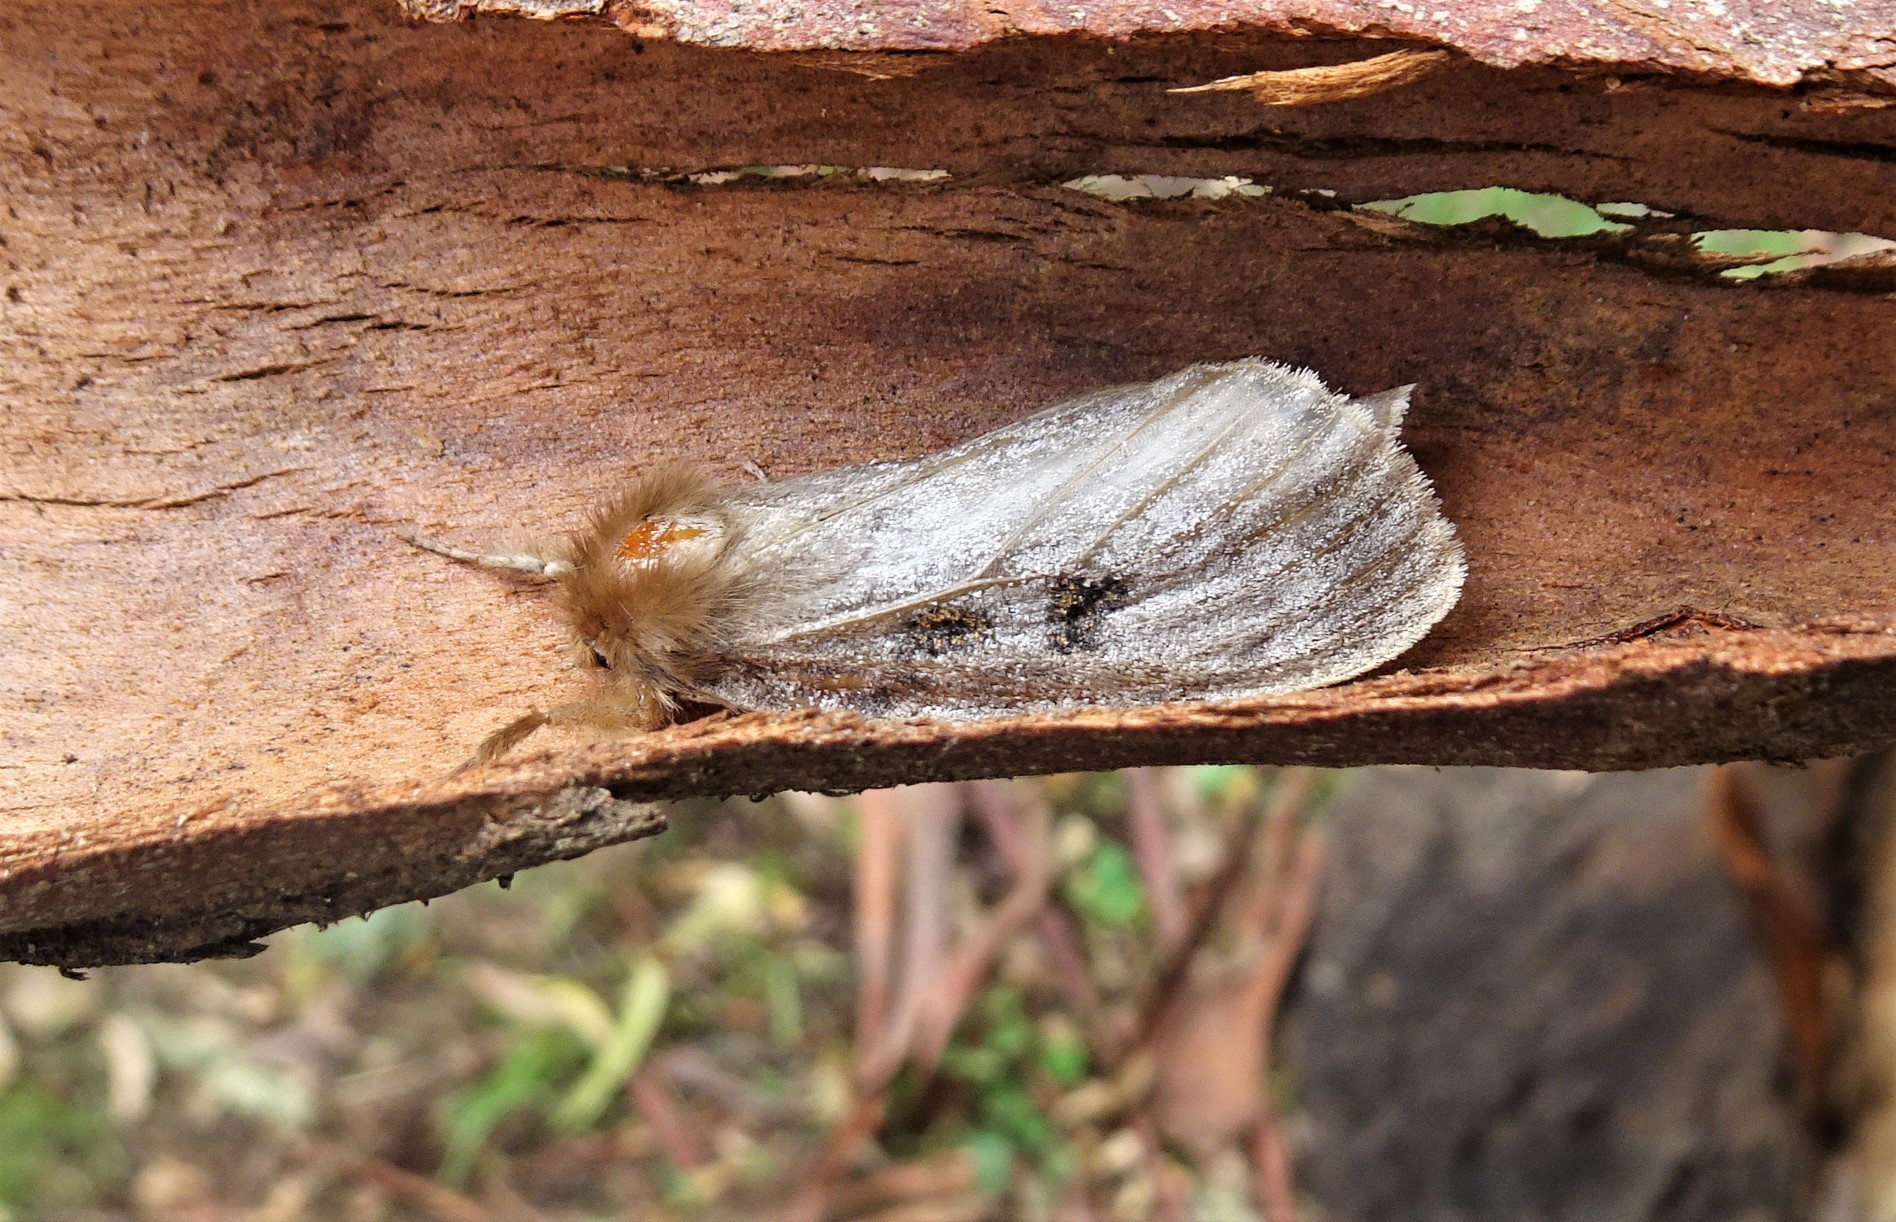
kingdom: Animalia
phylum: Arthropoda
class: Insecta
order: Lepidoptera
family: Erebidae
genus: Leptocneria
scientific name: Leptocneria reducta
